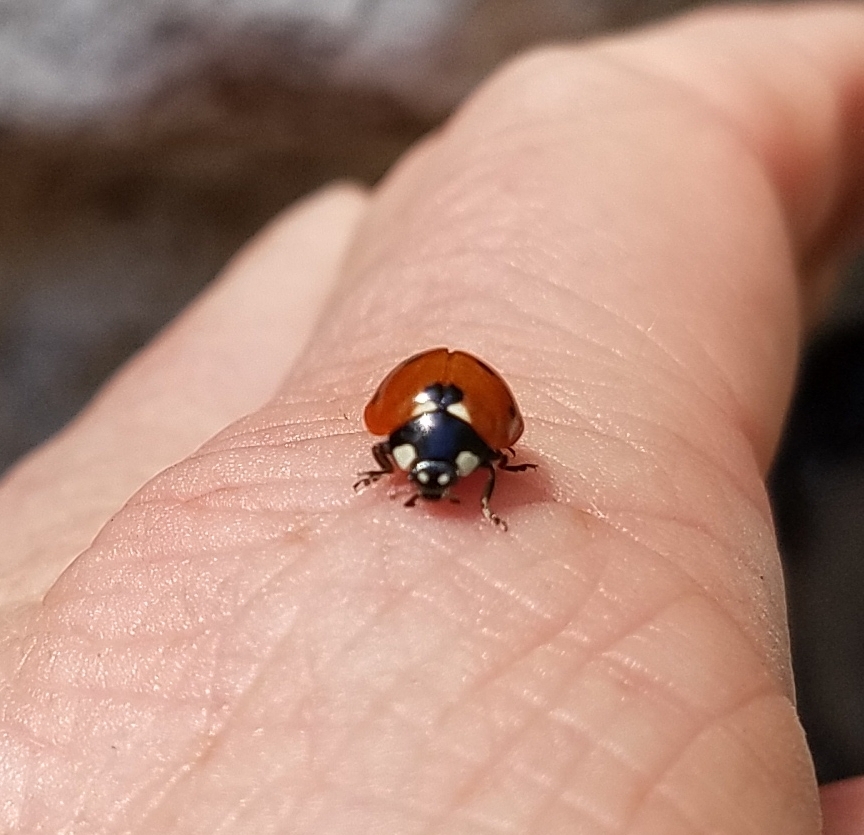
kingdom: Animalia
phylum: Arthropoda
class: Insecta
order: Coleoptera
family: Coccinellidae
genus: Coccinella
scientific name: Coccinella septempunctata
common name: Sevenspotted lady beetle
